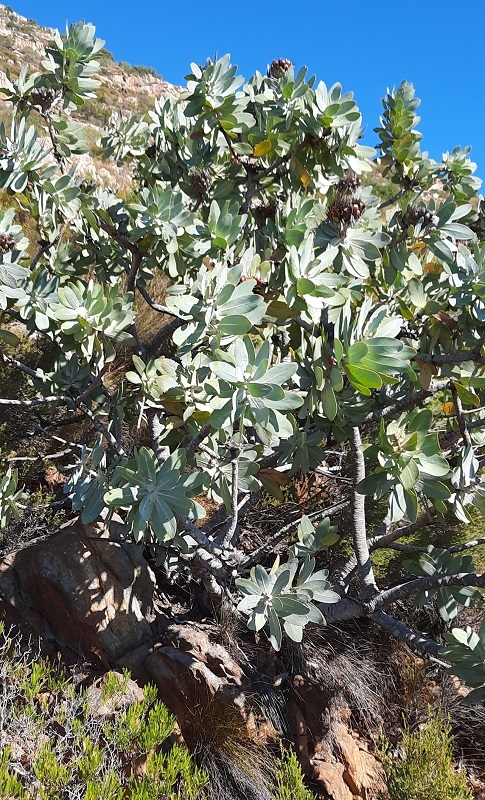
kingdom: Plantae
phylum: Tracheophyta
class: Magnoliopsida
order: Proteales
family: Proteaceae
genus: Protea
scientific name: Protea nitida
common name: Tree protea
